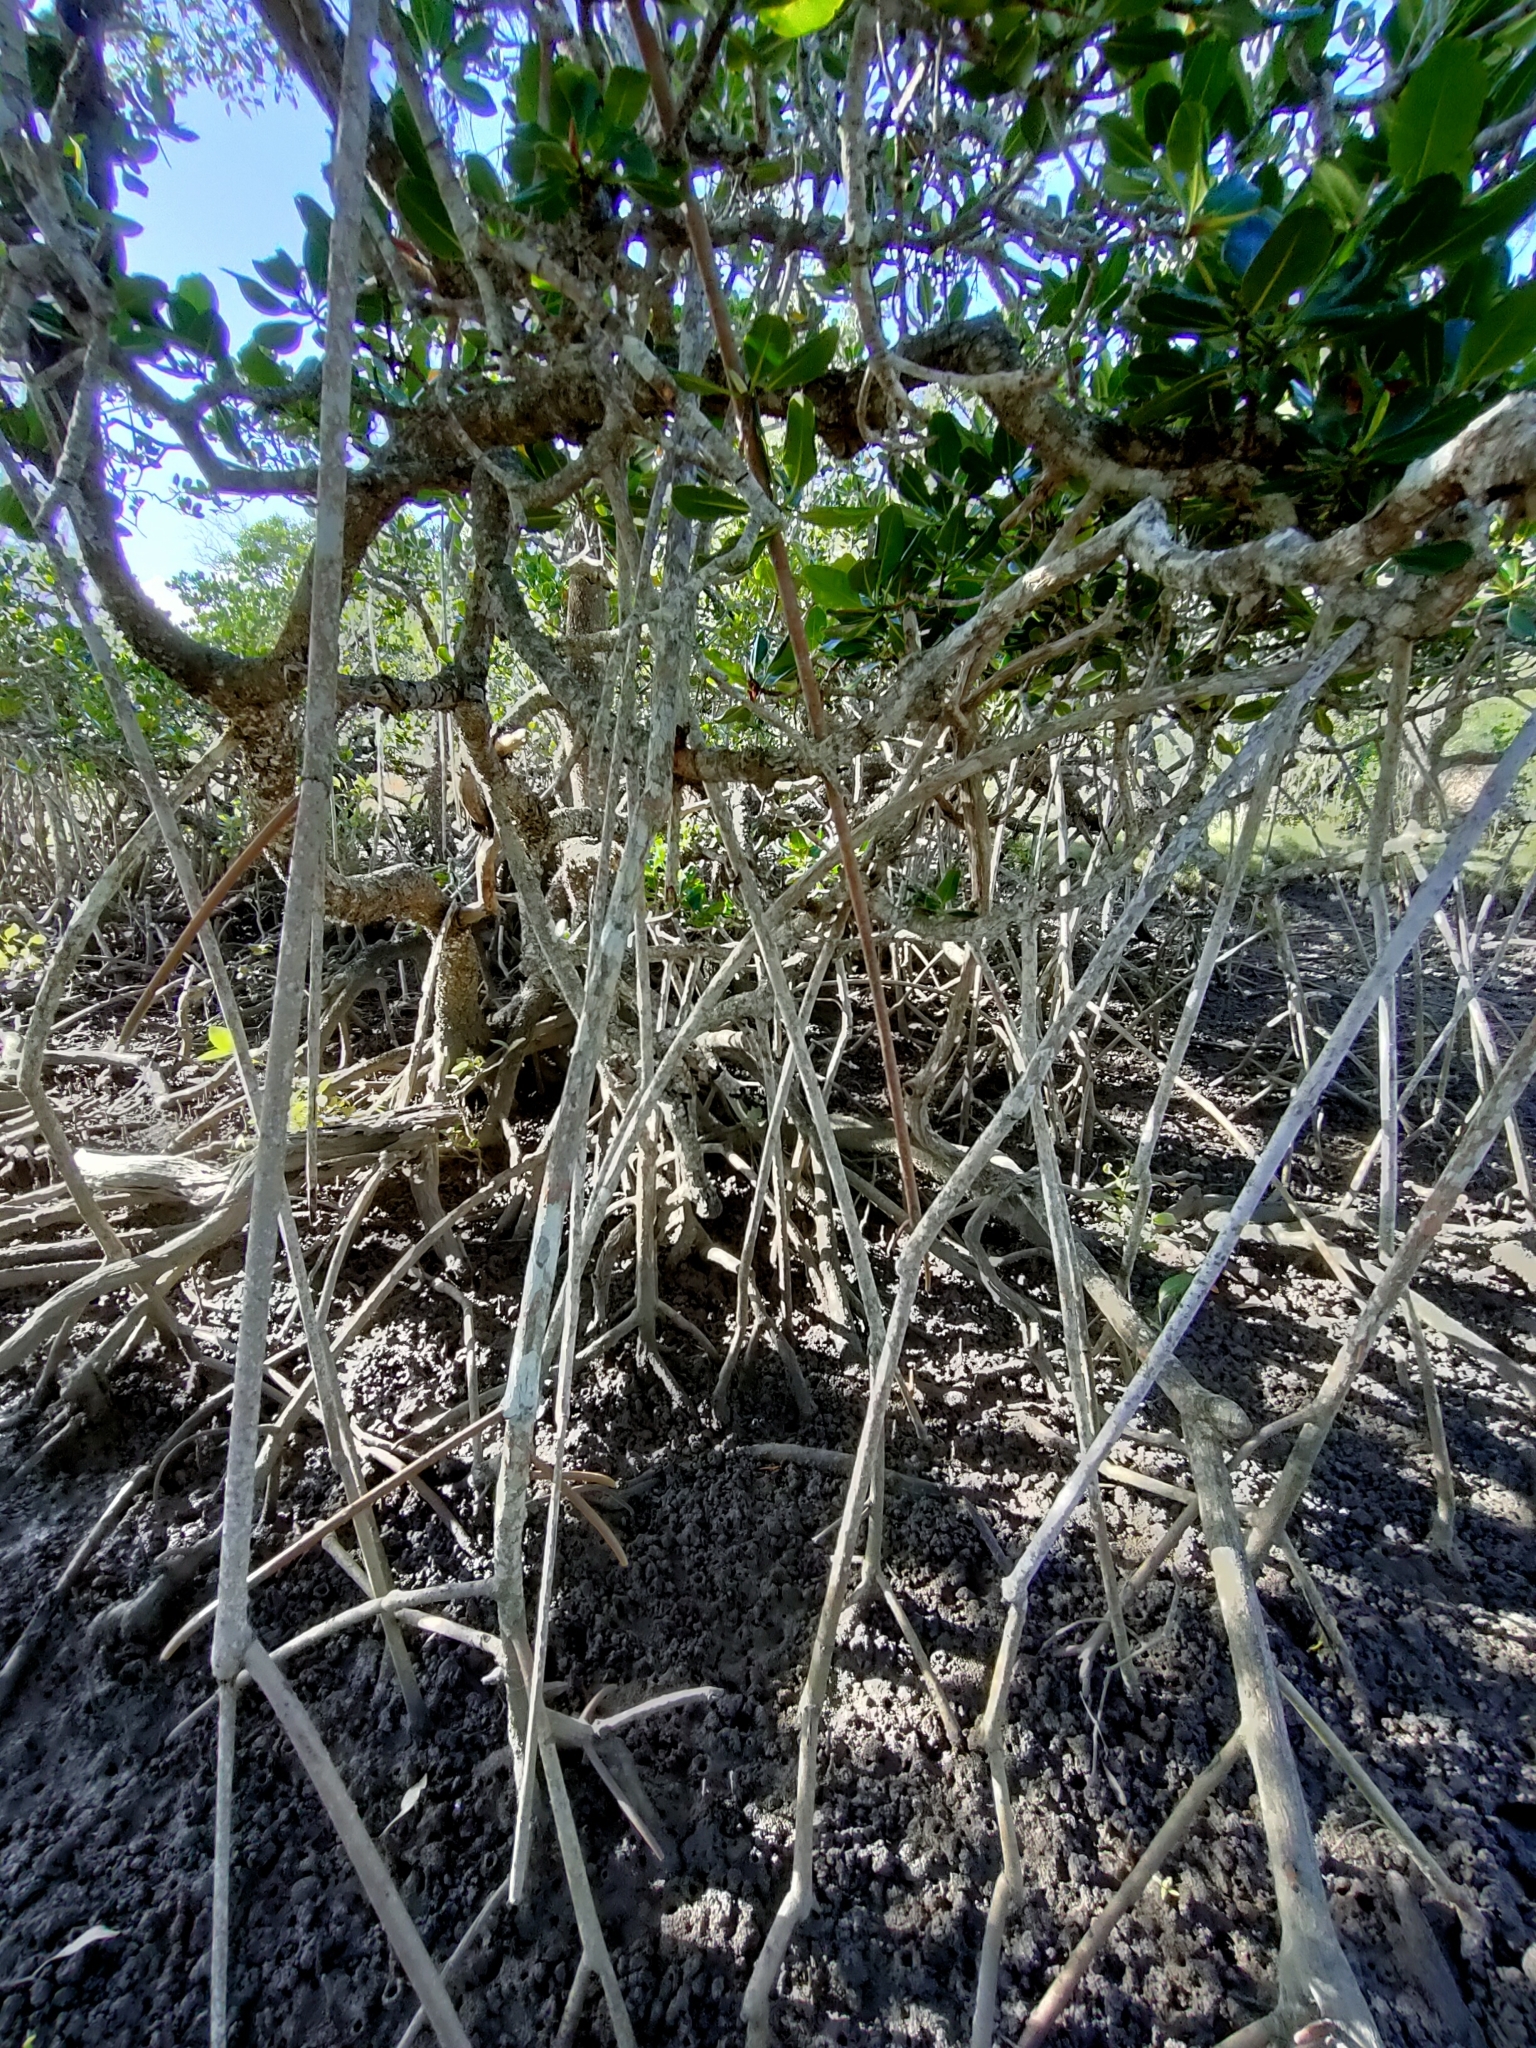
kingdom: Plantae
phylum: Tracheophyta
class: Magnoliopsida
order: Malpighiales
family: Rhizophoraceae
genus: Rhizophora
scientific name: Rhizophora stylosa
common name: Red mangrove
